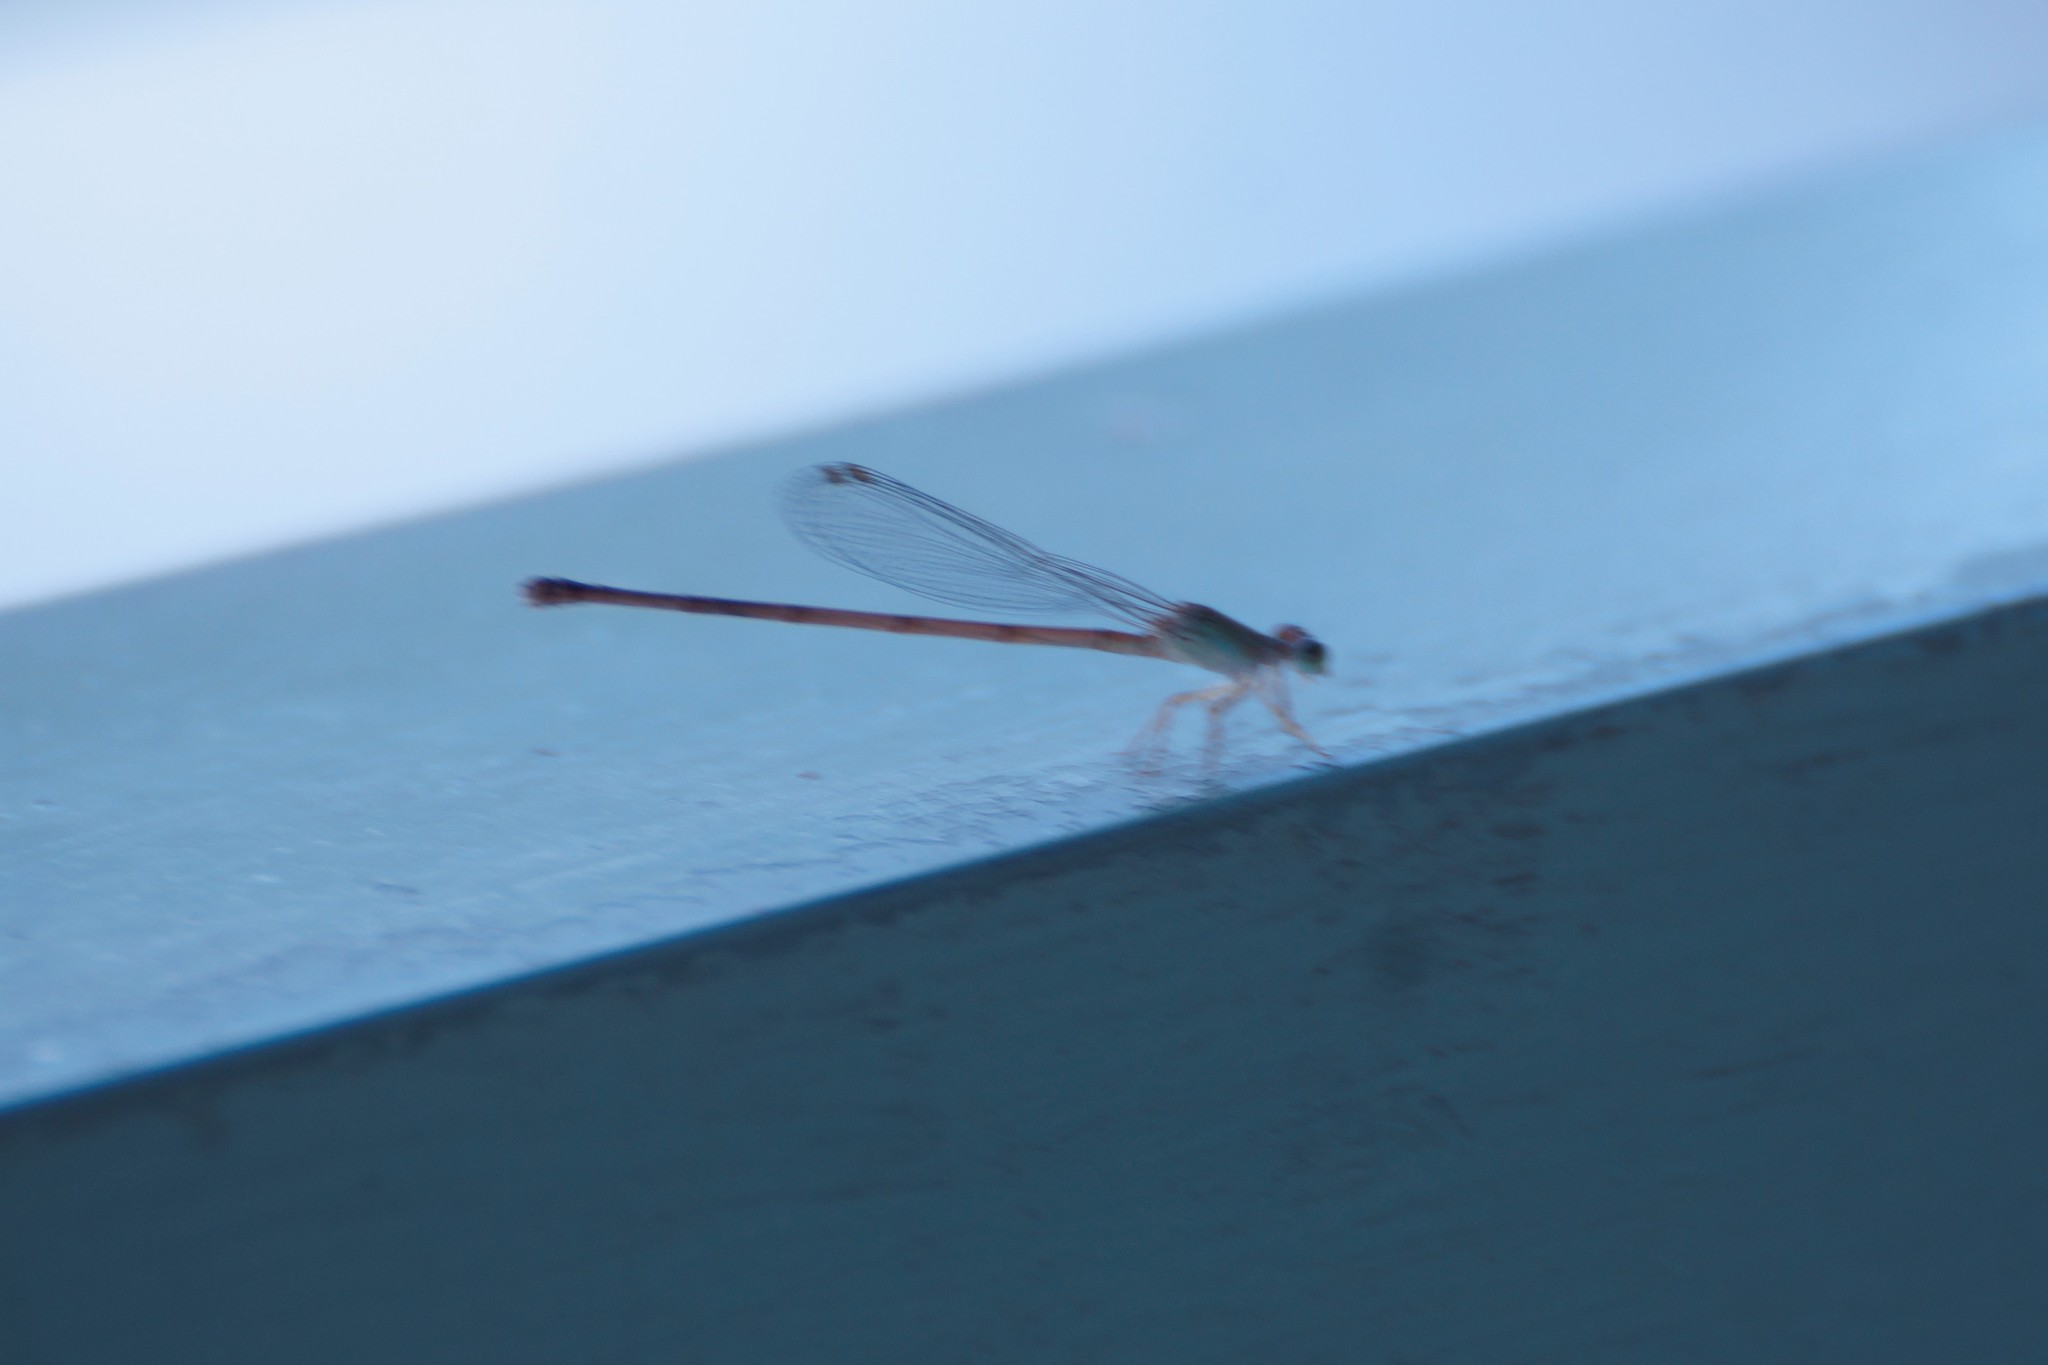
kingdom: Animalia
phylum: Arthropoda
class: Insecta
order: Odonata
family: Coenagrionidae
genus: Ceriagrion
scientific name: Ceriagrion aeruginosum
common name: Redtail
